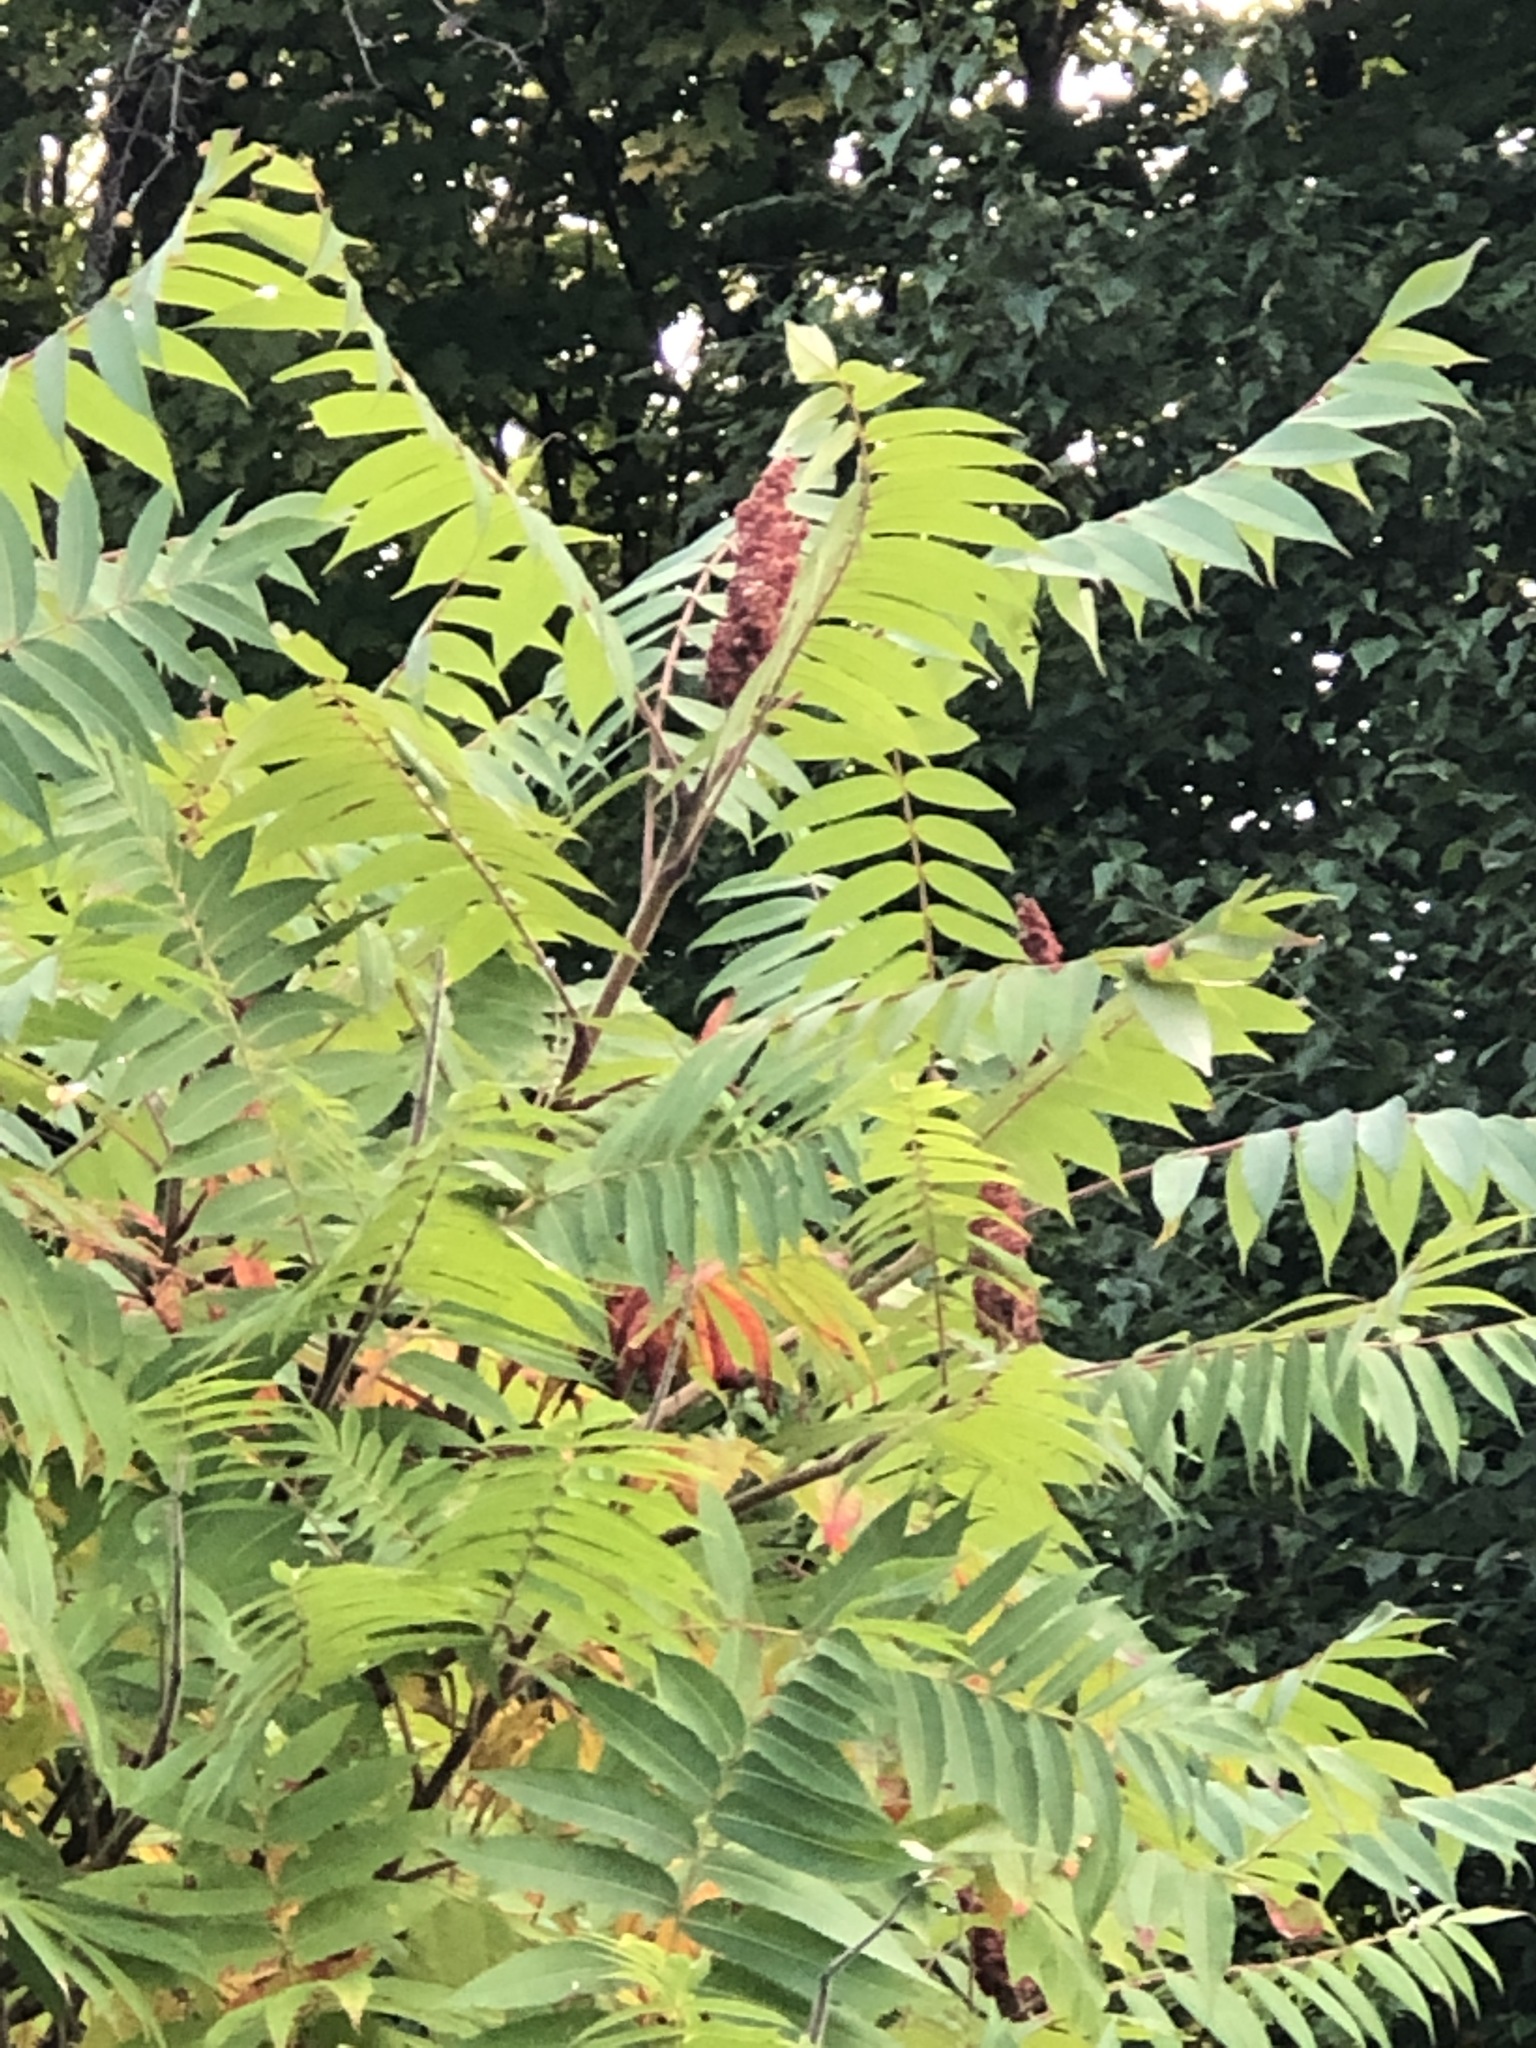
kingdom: Plantae
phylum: Tracheophyta
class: Magnoliopsida
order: Sapindales
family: Anacardiaceae
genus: Rhus
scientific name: Rhus typhina
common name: Staghorn sumac
